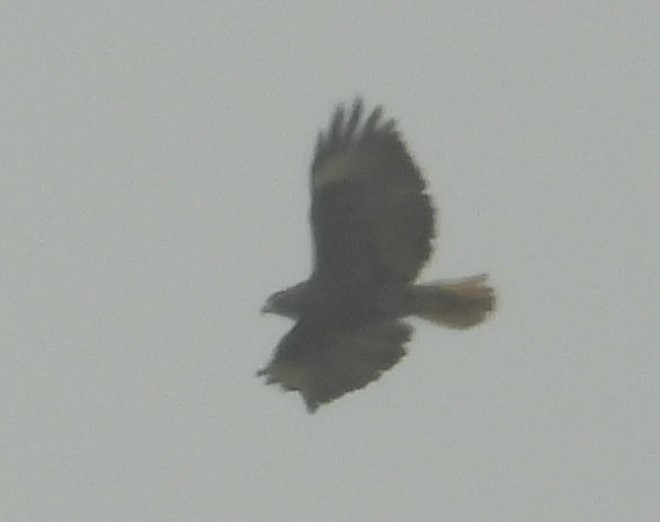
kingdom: Animalia
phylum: Chordata
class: Aves
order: Accipitriformes
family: Accipitridae
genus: Buteo
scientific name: Buteo jamaicensis
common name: Red-tailed hawk
